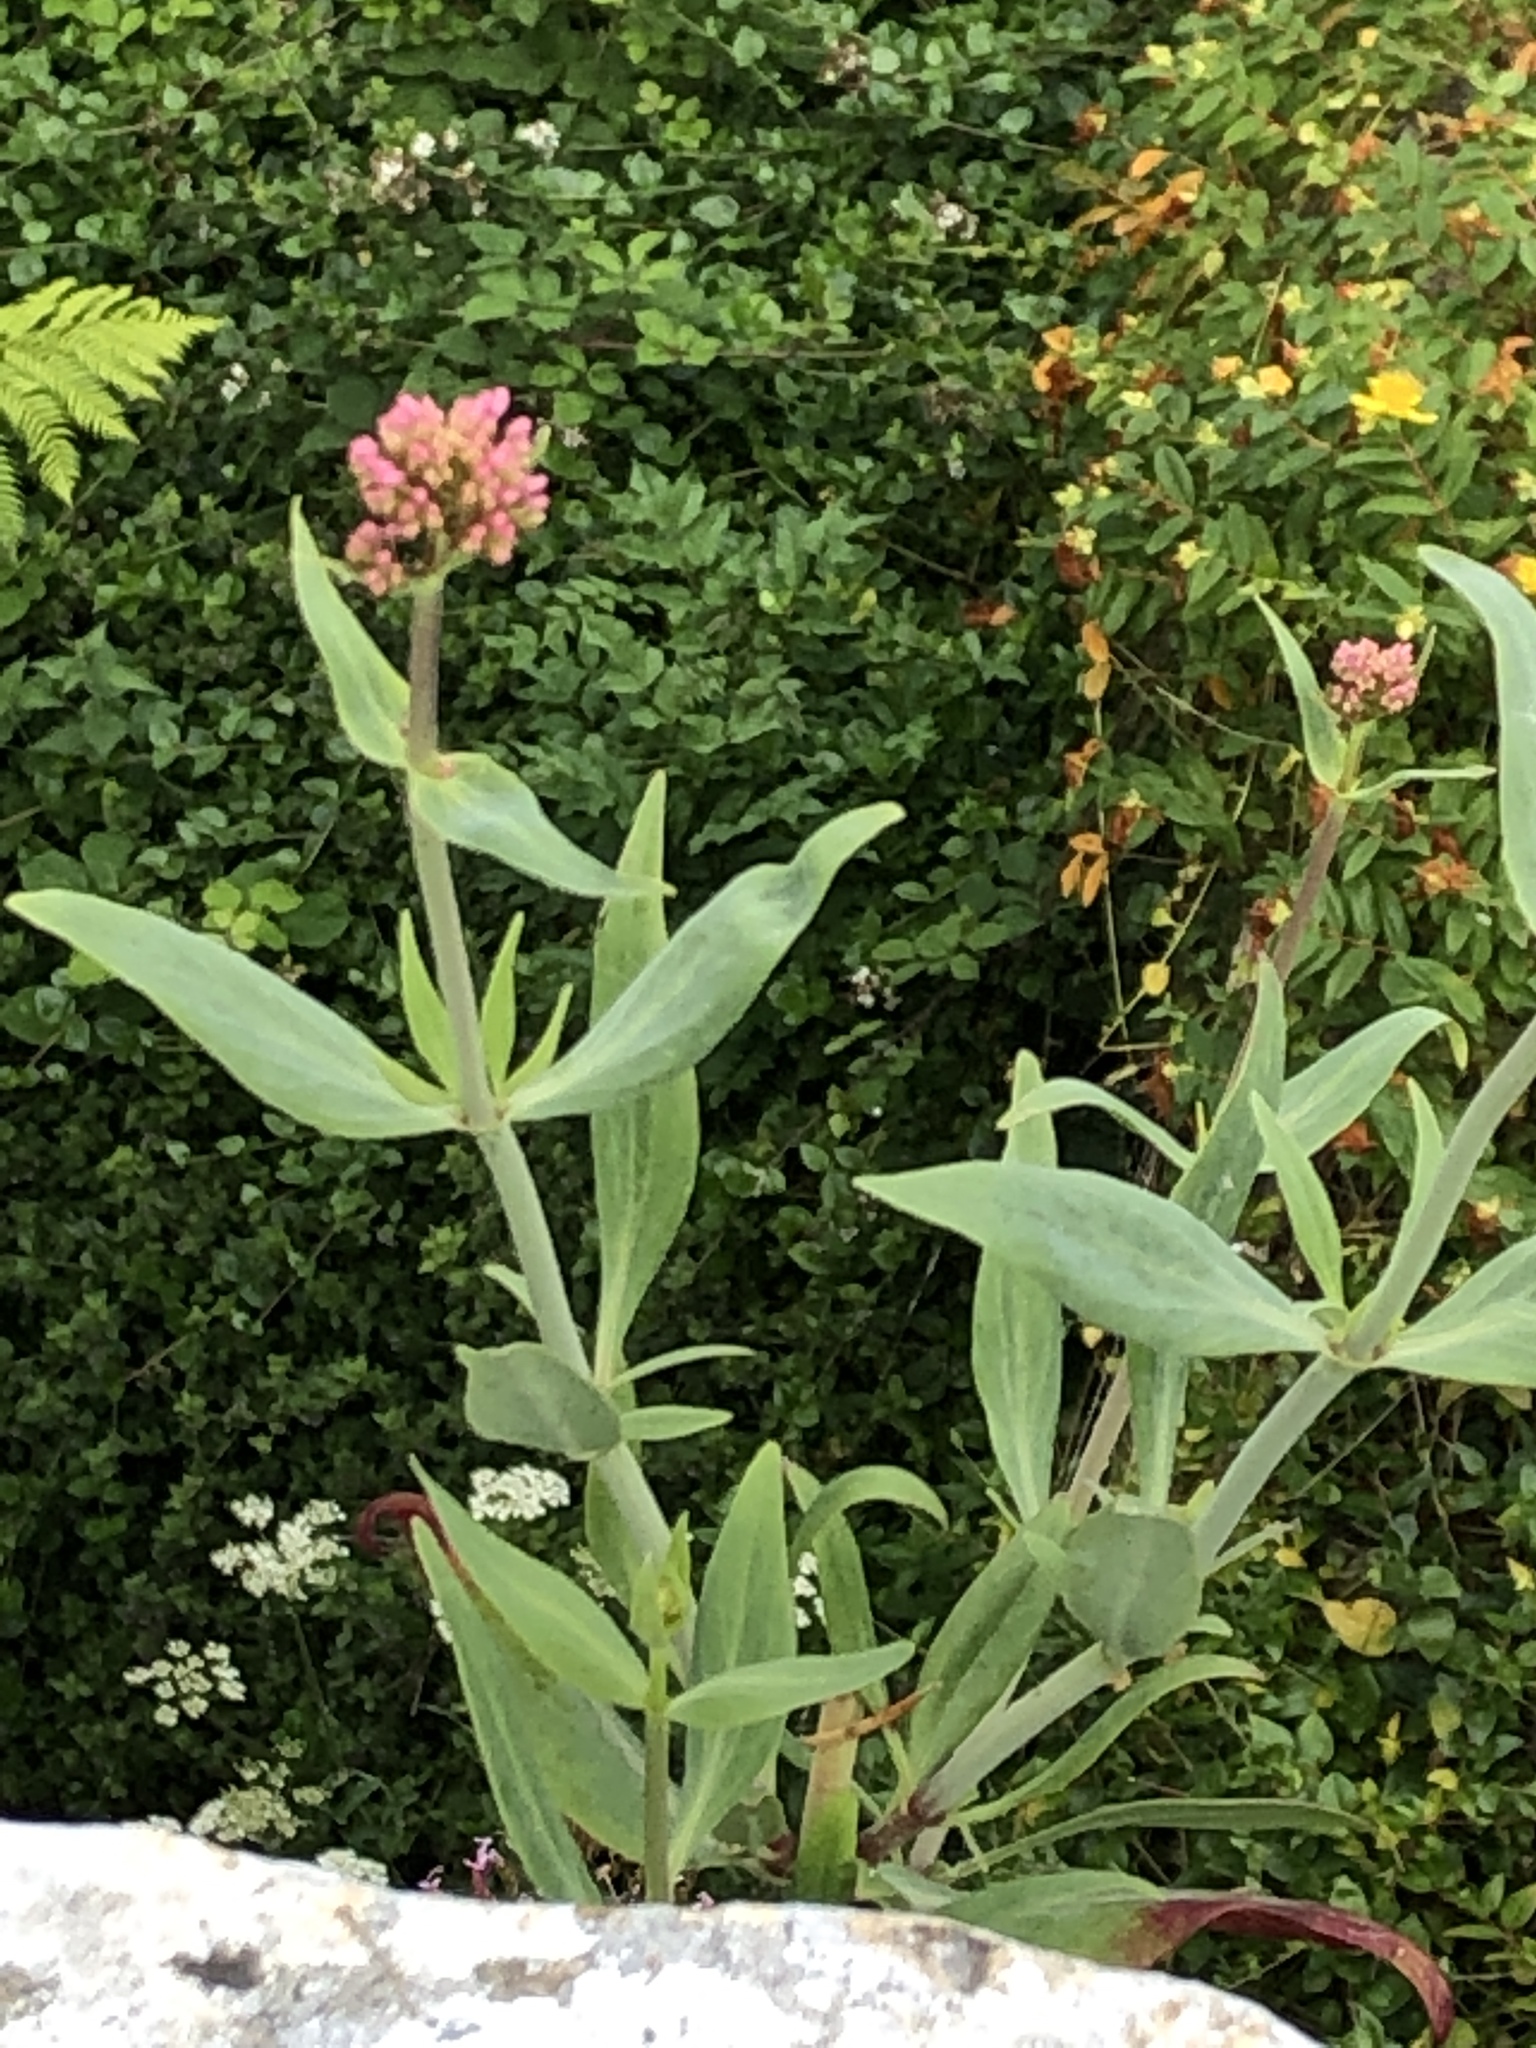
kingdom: Plantae
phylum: Tracheophyta
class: Magnoliopsida
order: Dipsacales
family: Caprifoliaceae
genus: Centranthus
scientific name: Centranthus ruber
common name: Red valerian
